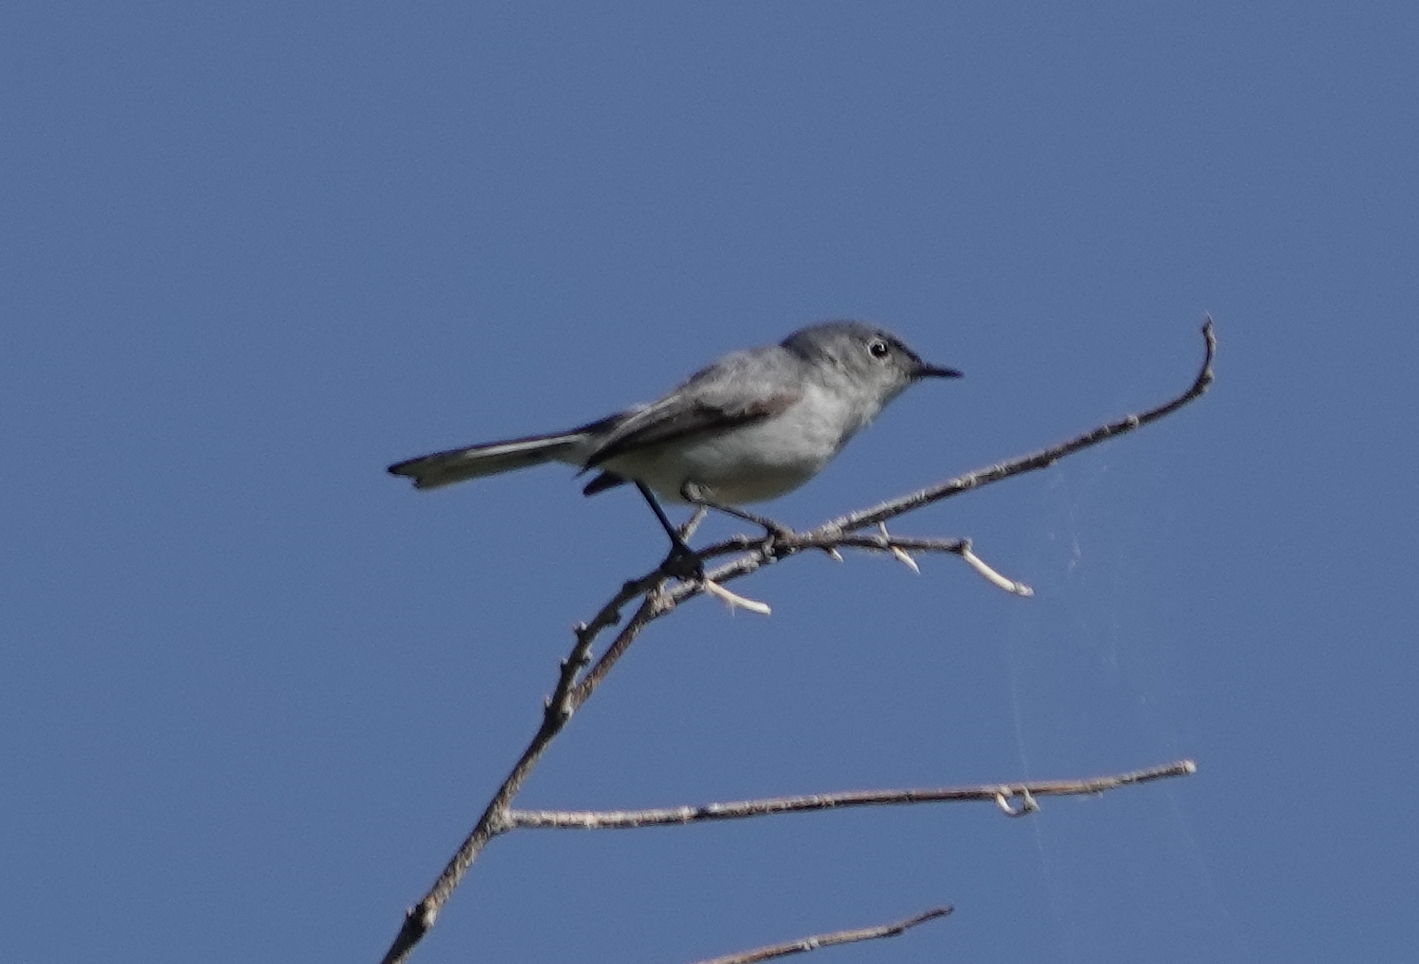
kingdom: Animalia
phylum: Chordata
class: Aves
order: Passeriformes
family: Polioptilidae
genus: Polioptila
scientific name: Polioptila caerulea
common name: Blue-gray gnatcatcher
